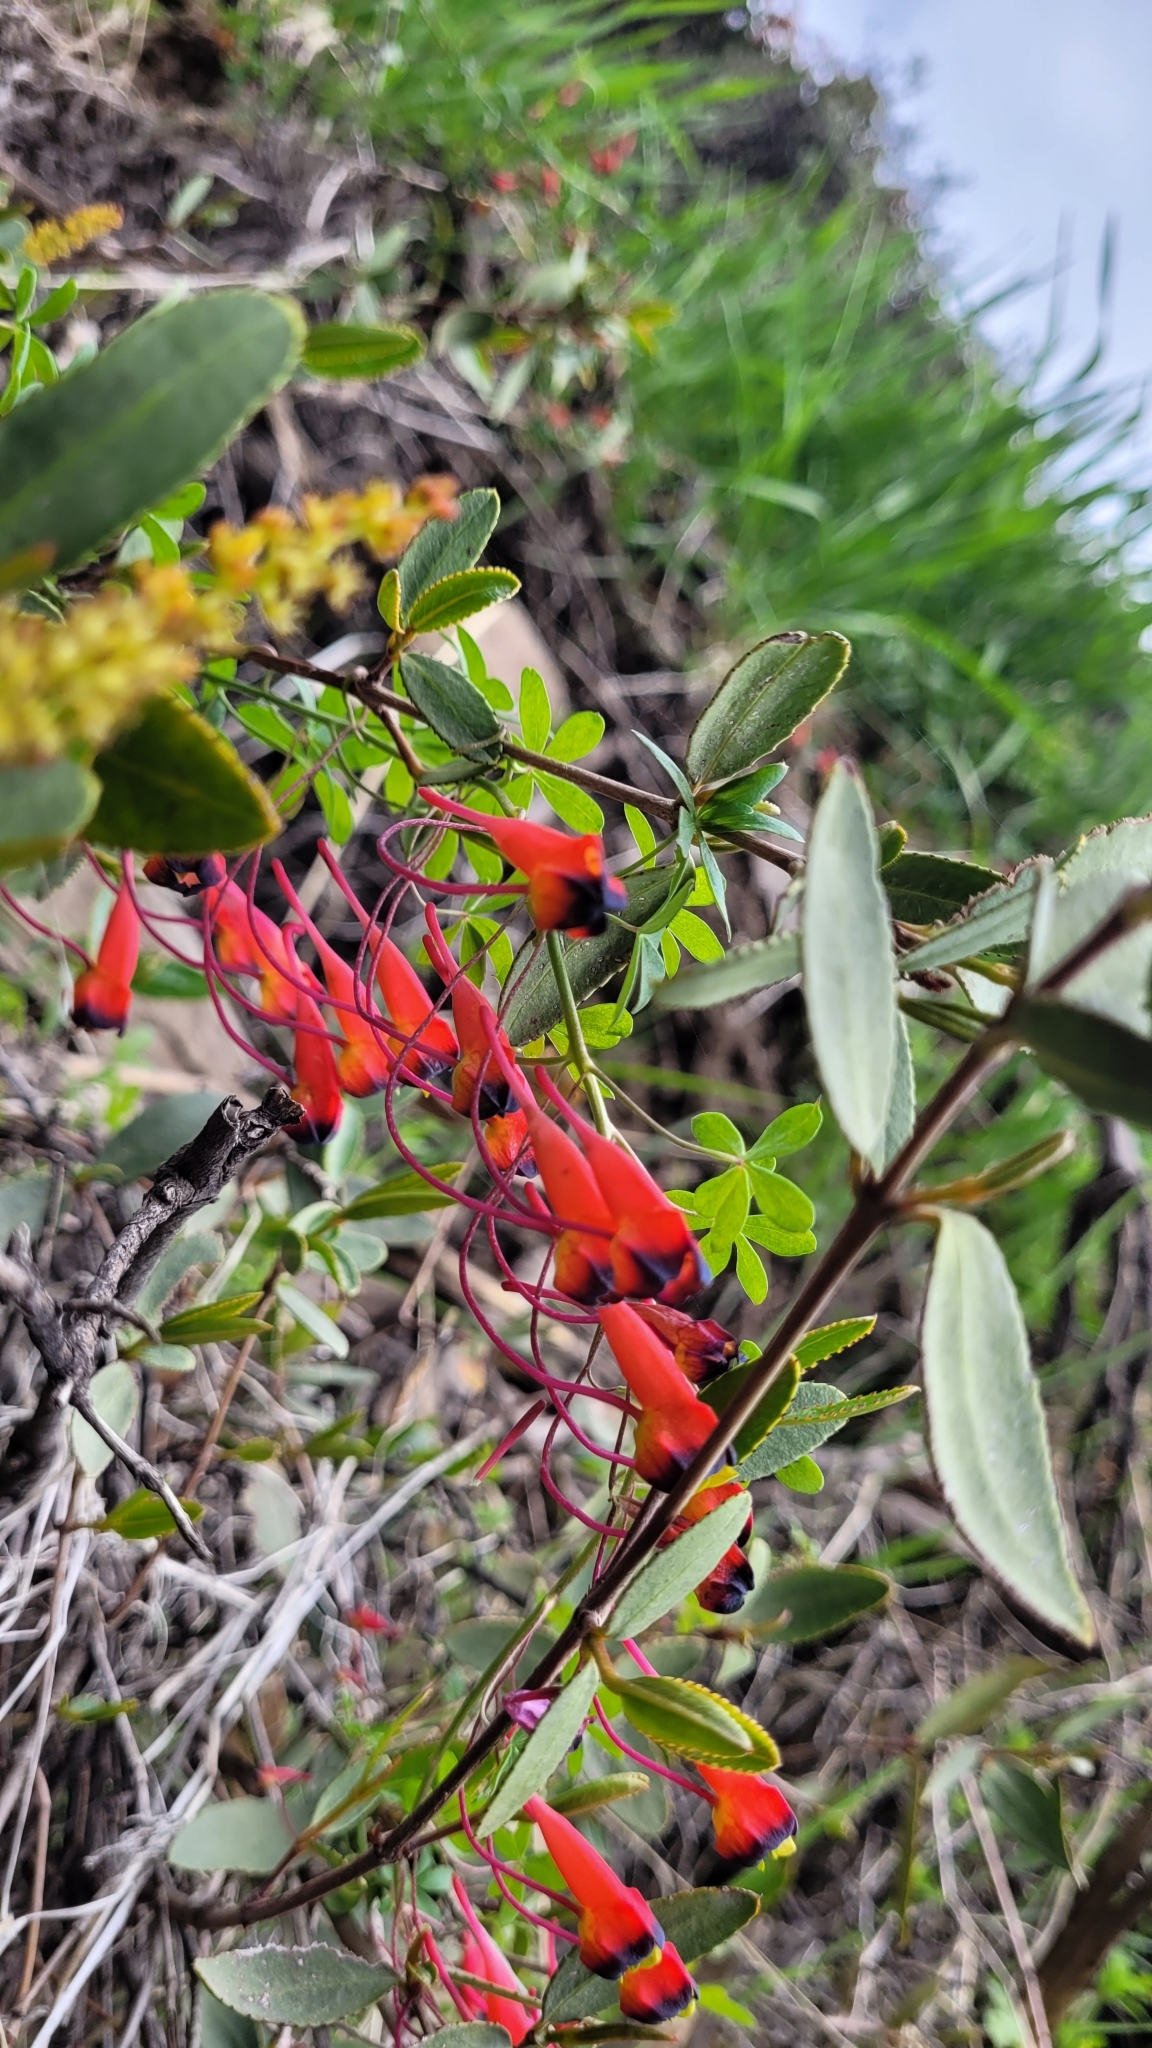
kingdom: Plantae
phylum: Tracheophyta
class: Magnoliopsida
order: Brassicales
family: Tropaeolaceae
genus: Tropaeolum
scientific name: Tropaeolum tricolor
